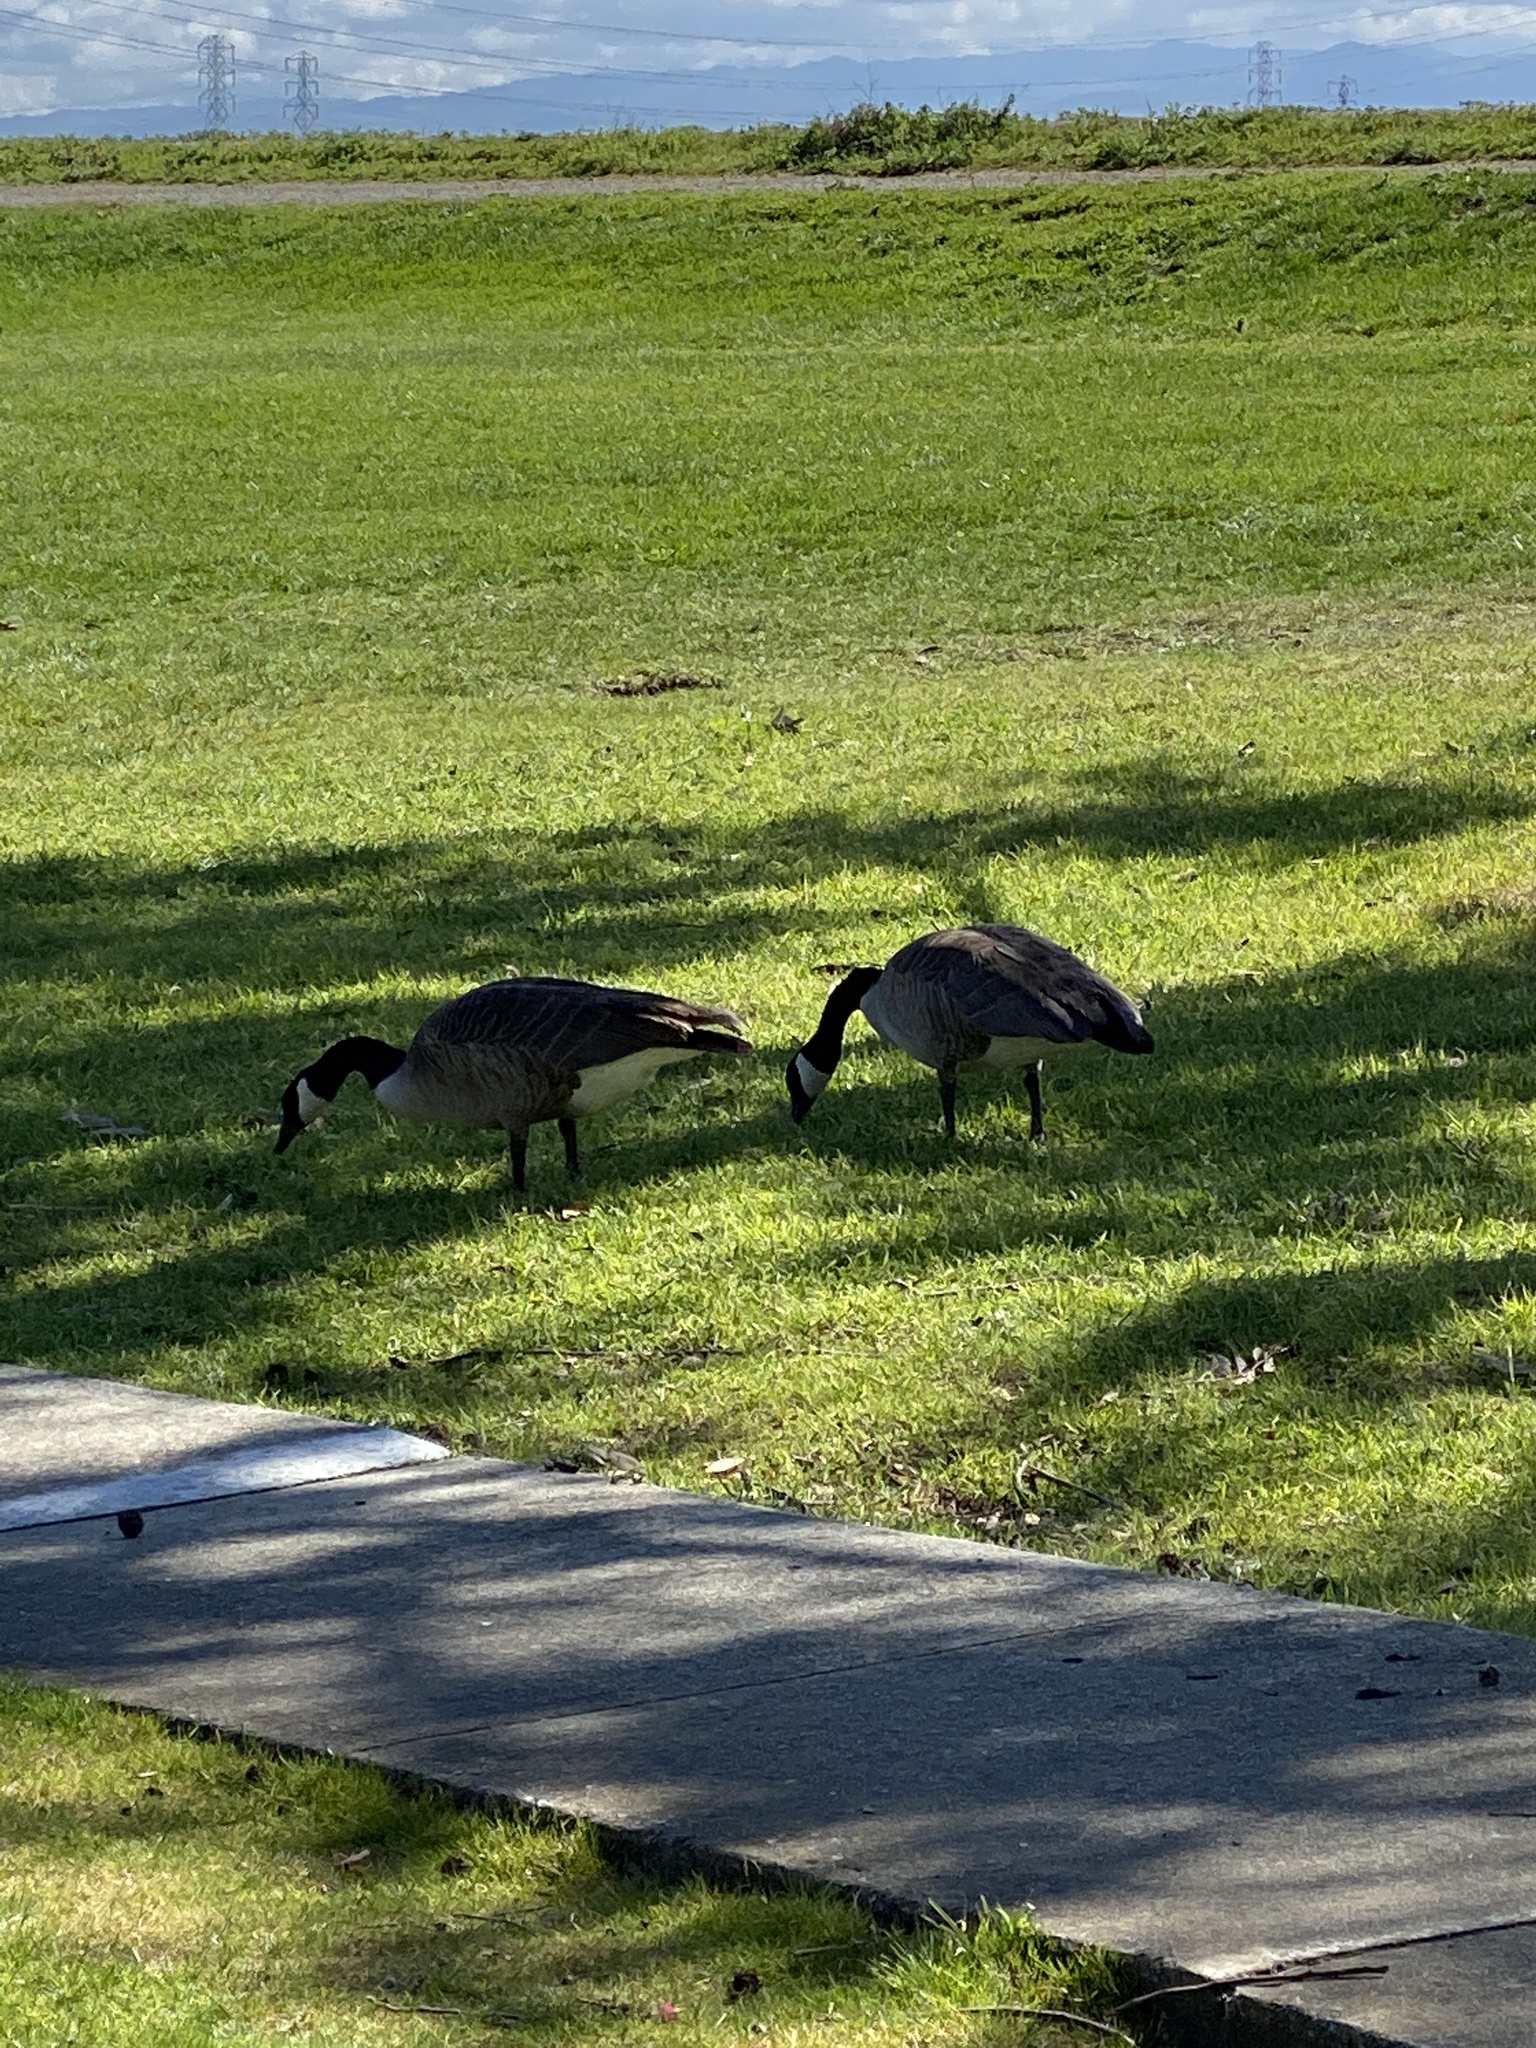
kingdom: Animalia
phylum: Chordata
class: Aves
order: Anseriformes
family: Anatidae
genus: Branta
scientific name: Branta canadensis
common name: Canada goose
